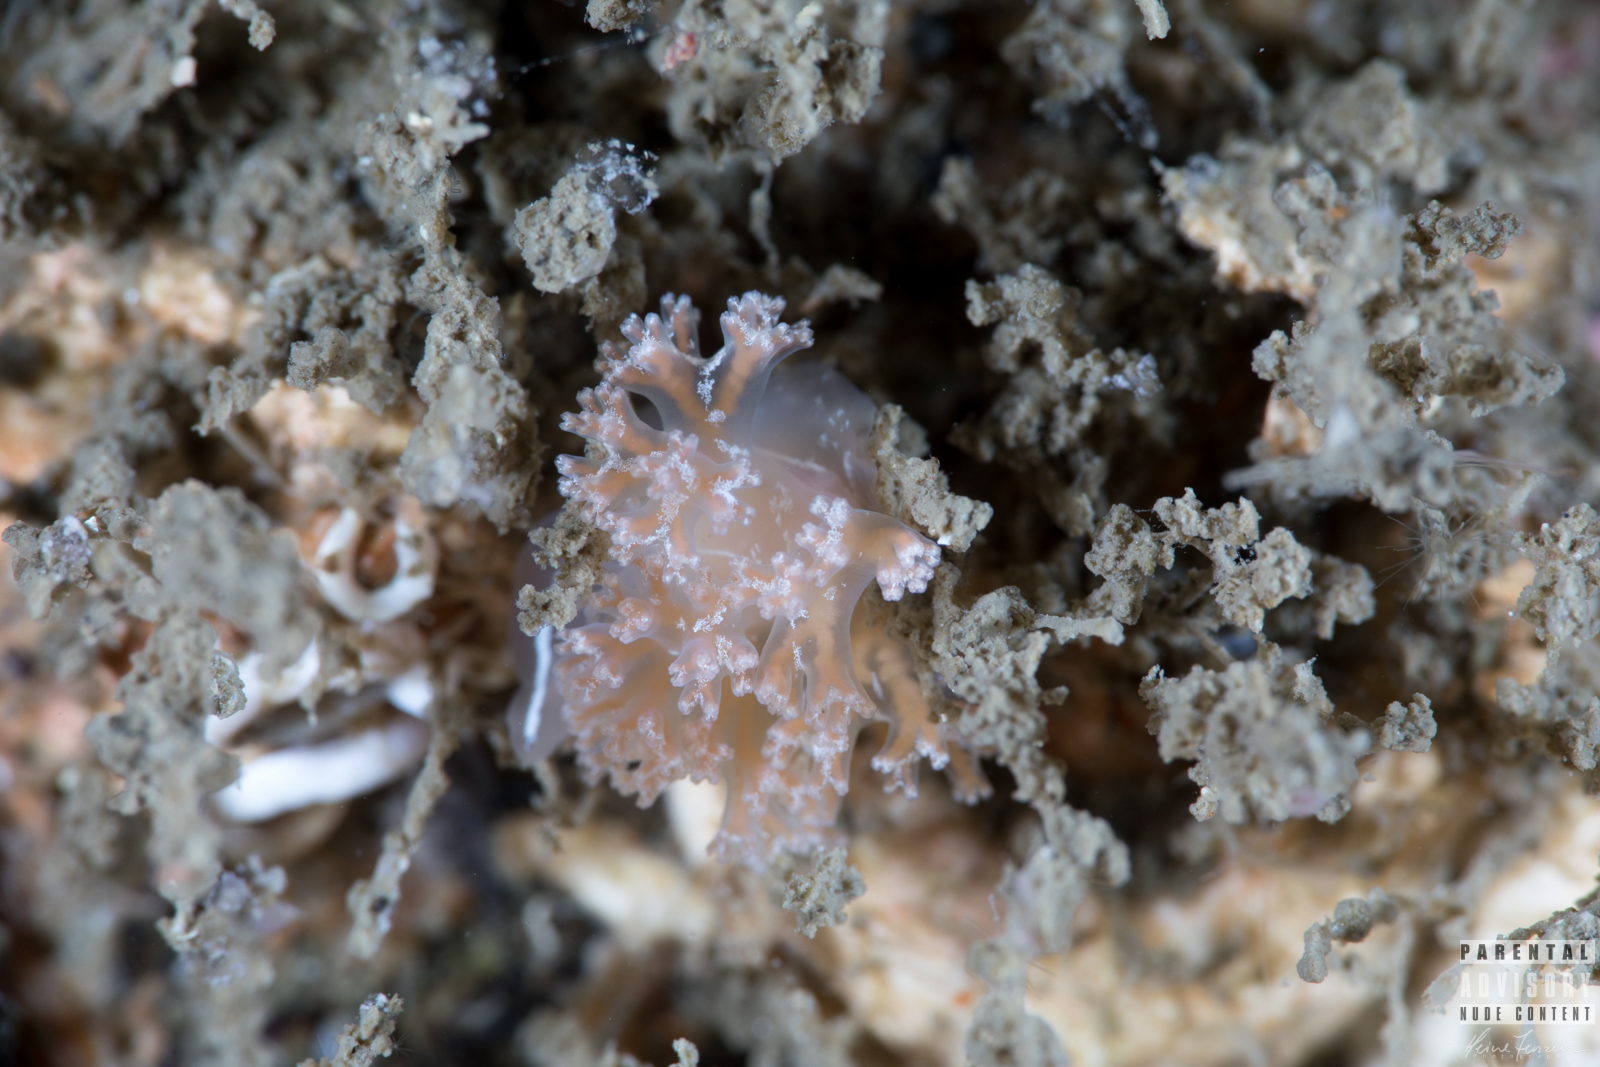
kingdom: Animalia
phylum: Mollusca
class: Gastropoda
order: Nudibranchia
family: Heroidae
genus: Hero
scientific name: Hero formosa
